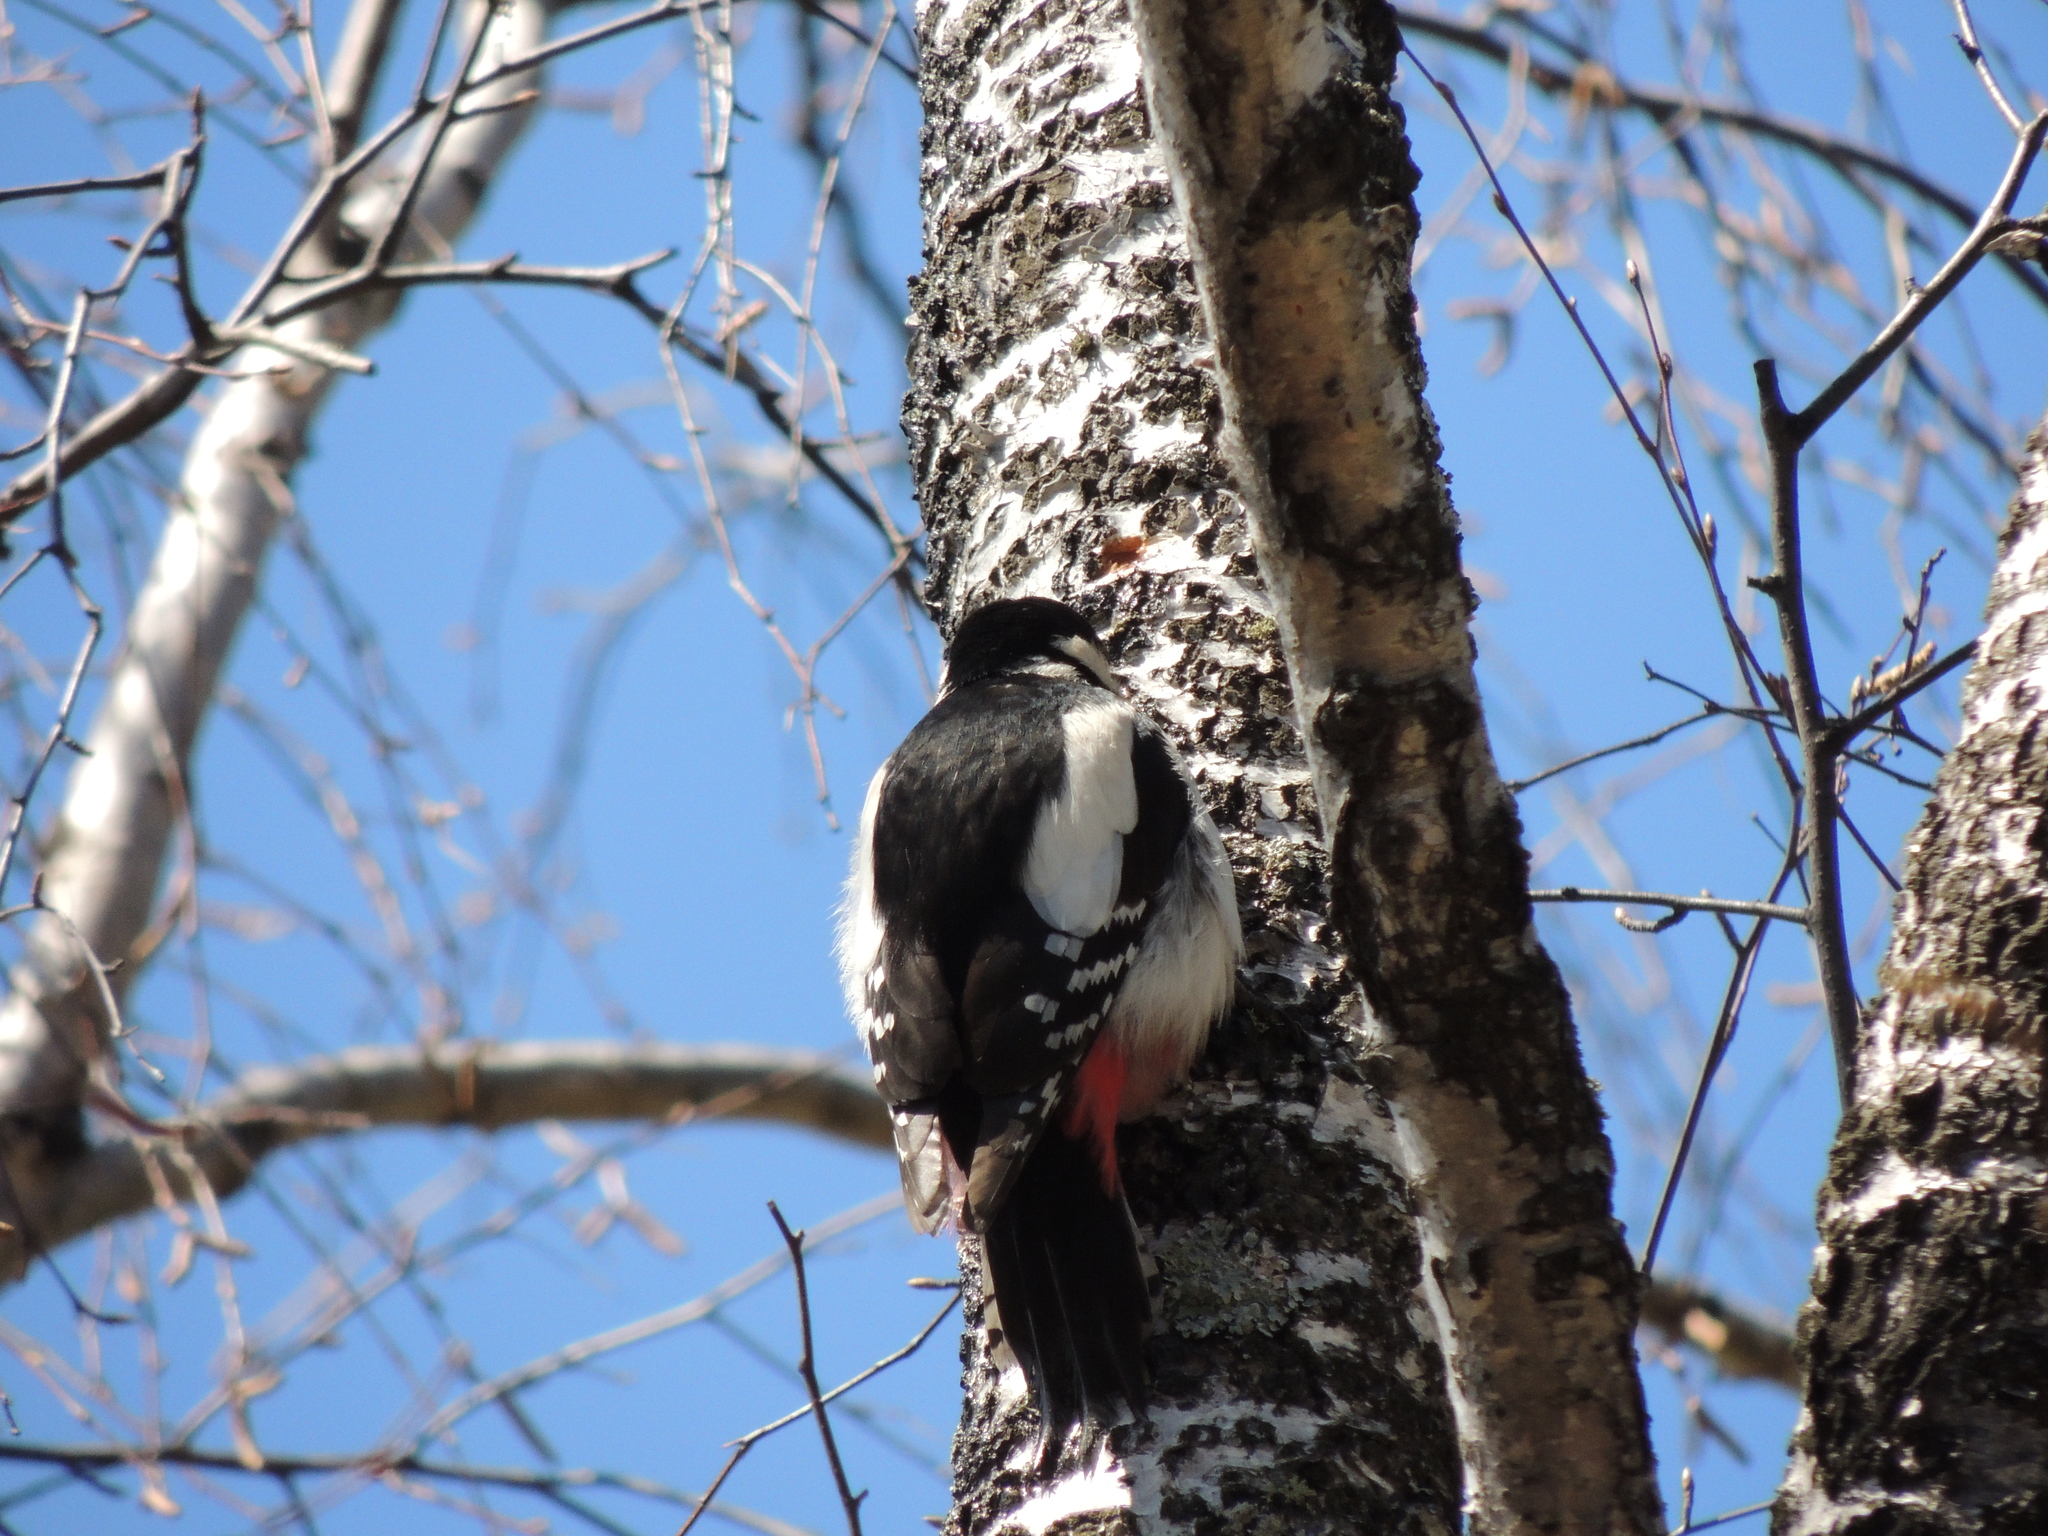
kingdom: Animalia
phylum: Chordata
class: Aves
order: Piciformes
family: Picidae
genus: Dendrocopos
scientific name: Dendrocopos major
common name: Great spotted woodpecker
